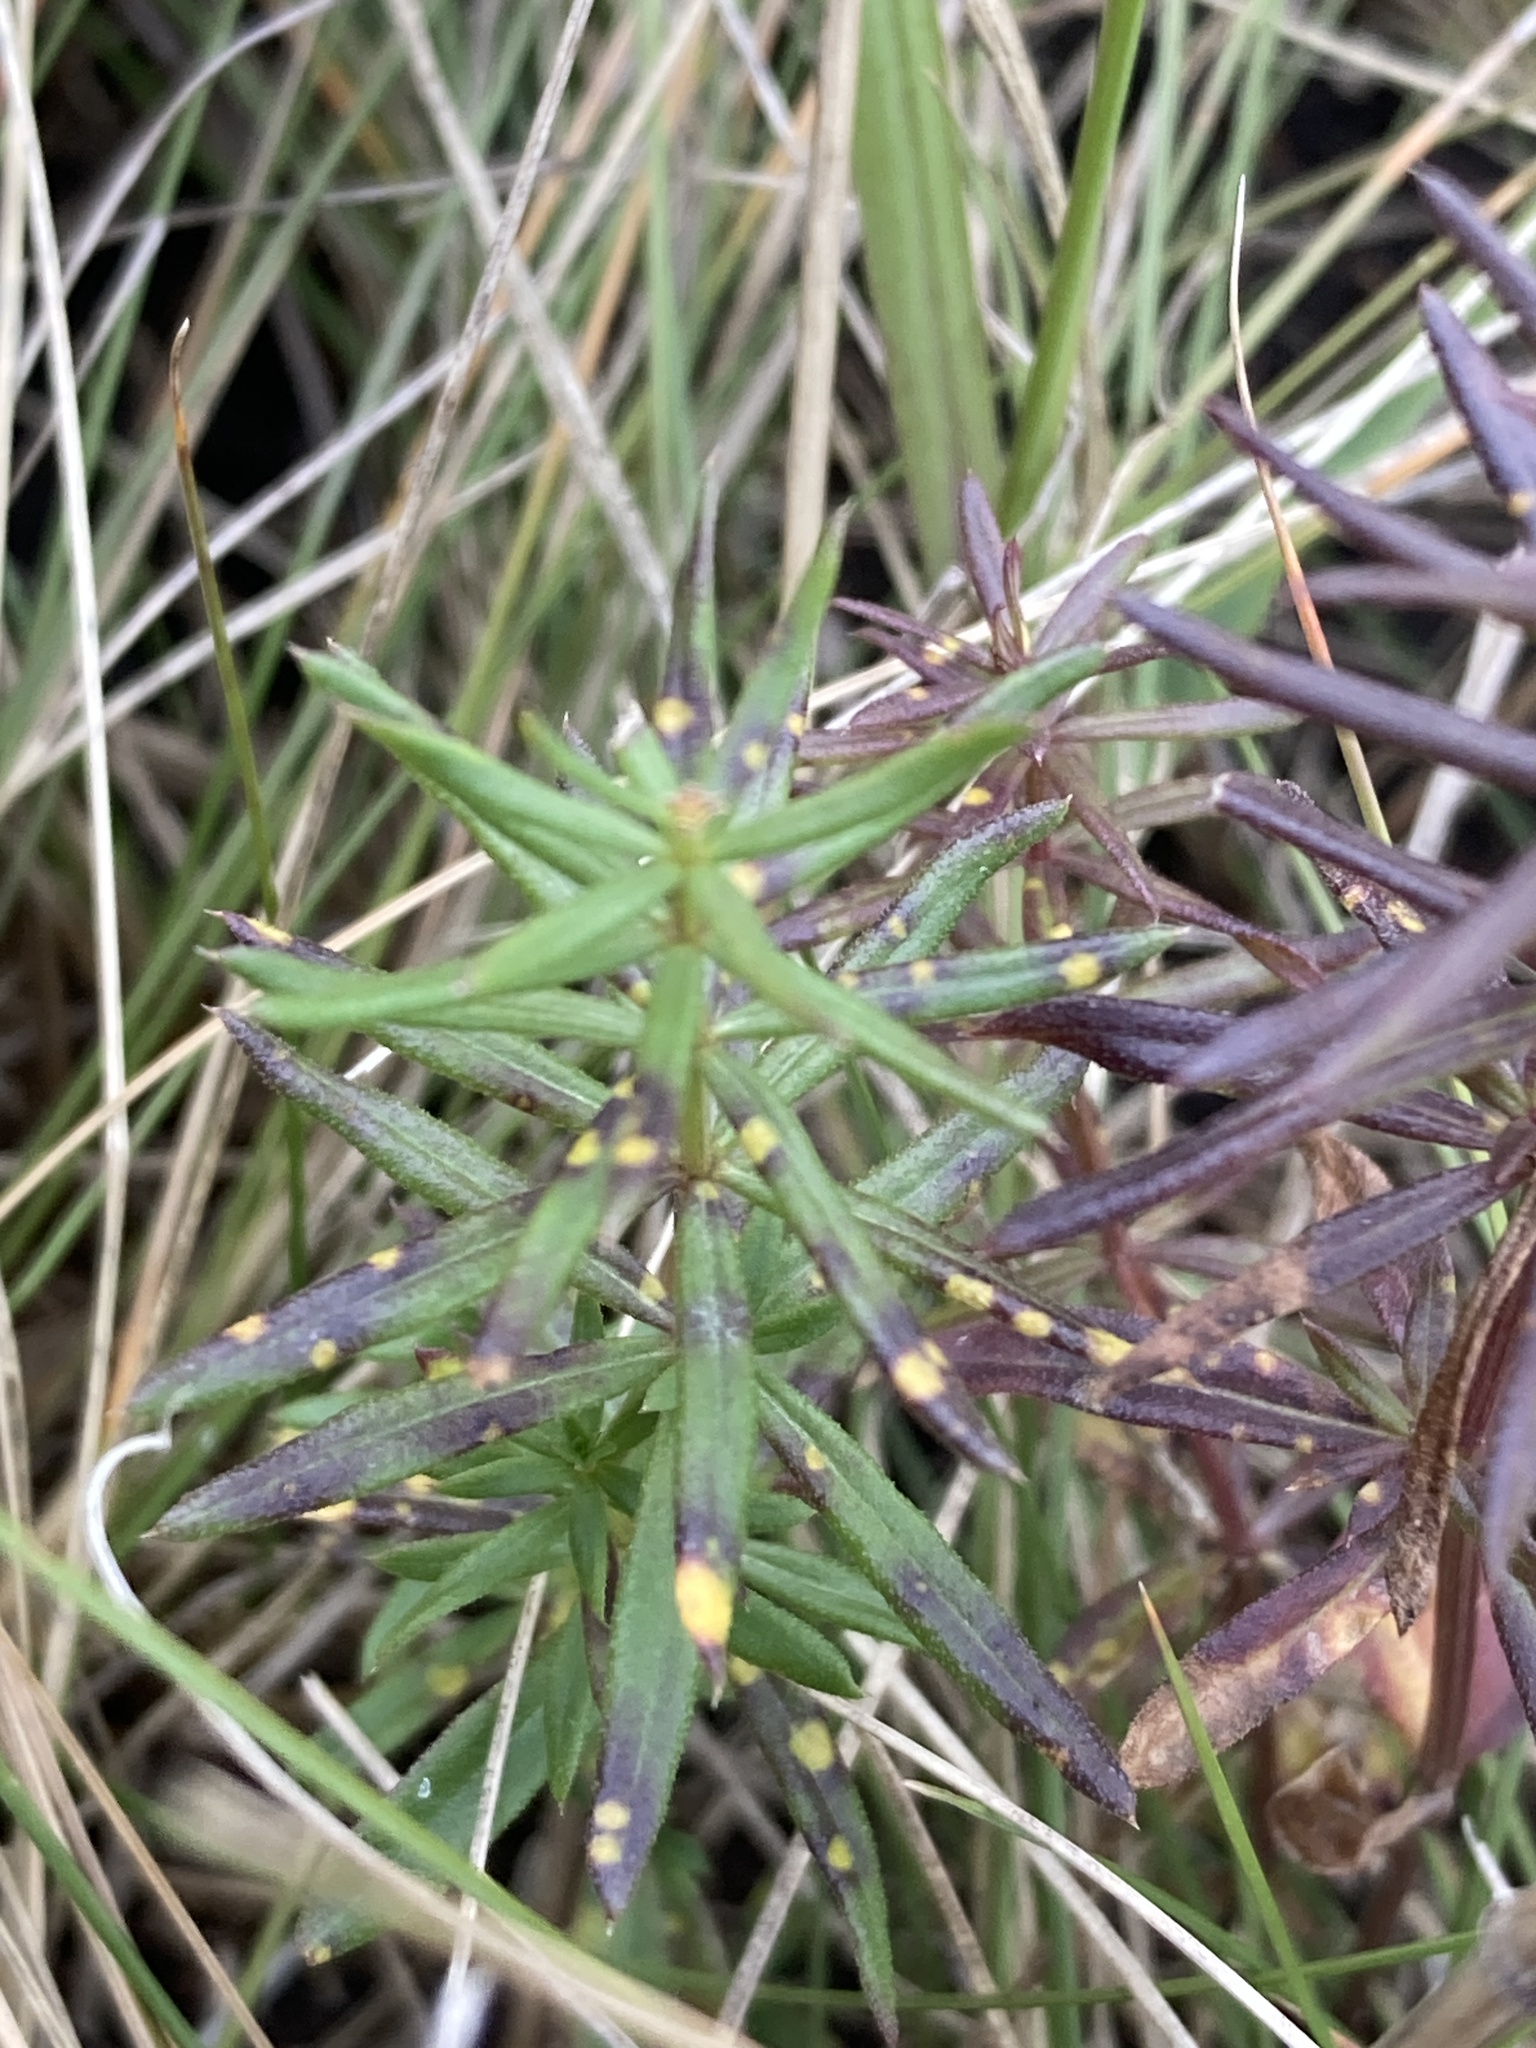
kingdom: Plantae
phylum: Tracheophyta
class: Magnoliopsida
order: Gentianales
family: Rubiaceae
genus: Galium
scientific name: Galium boreale
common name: Northern bedstraw
